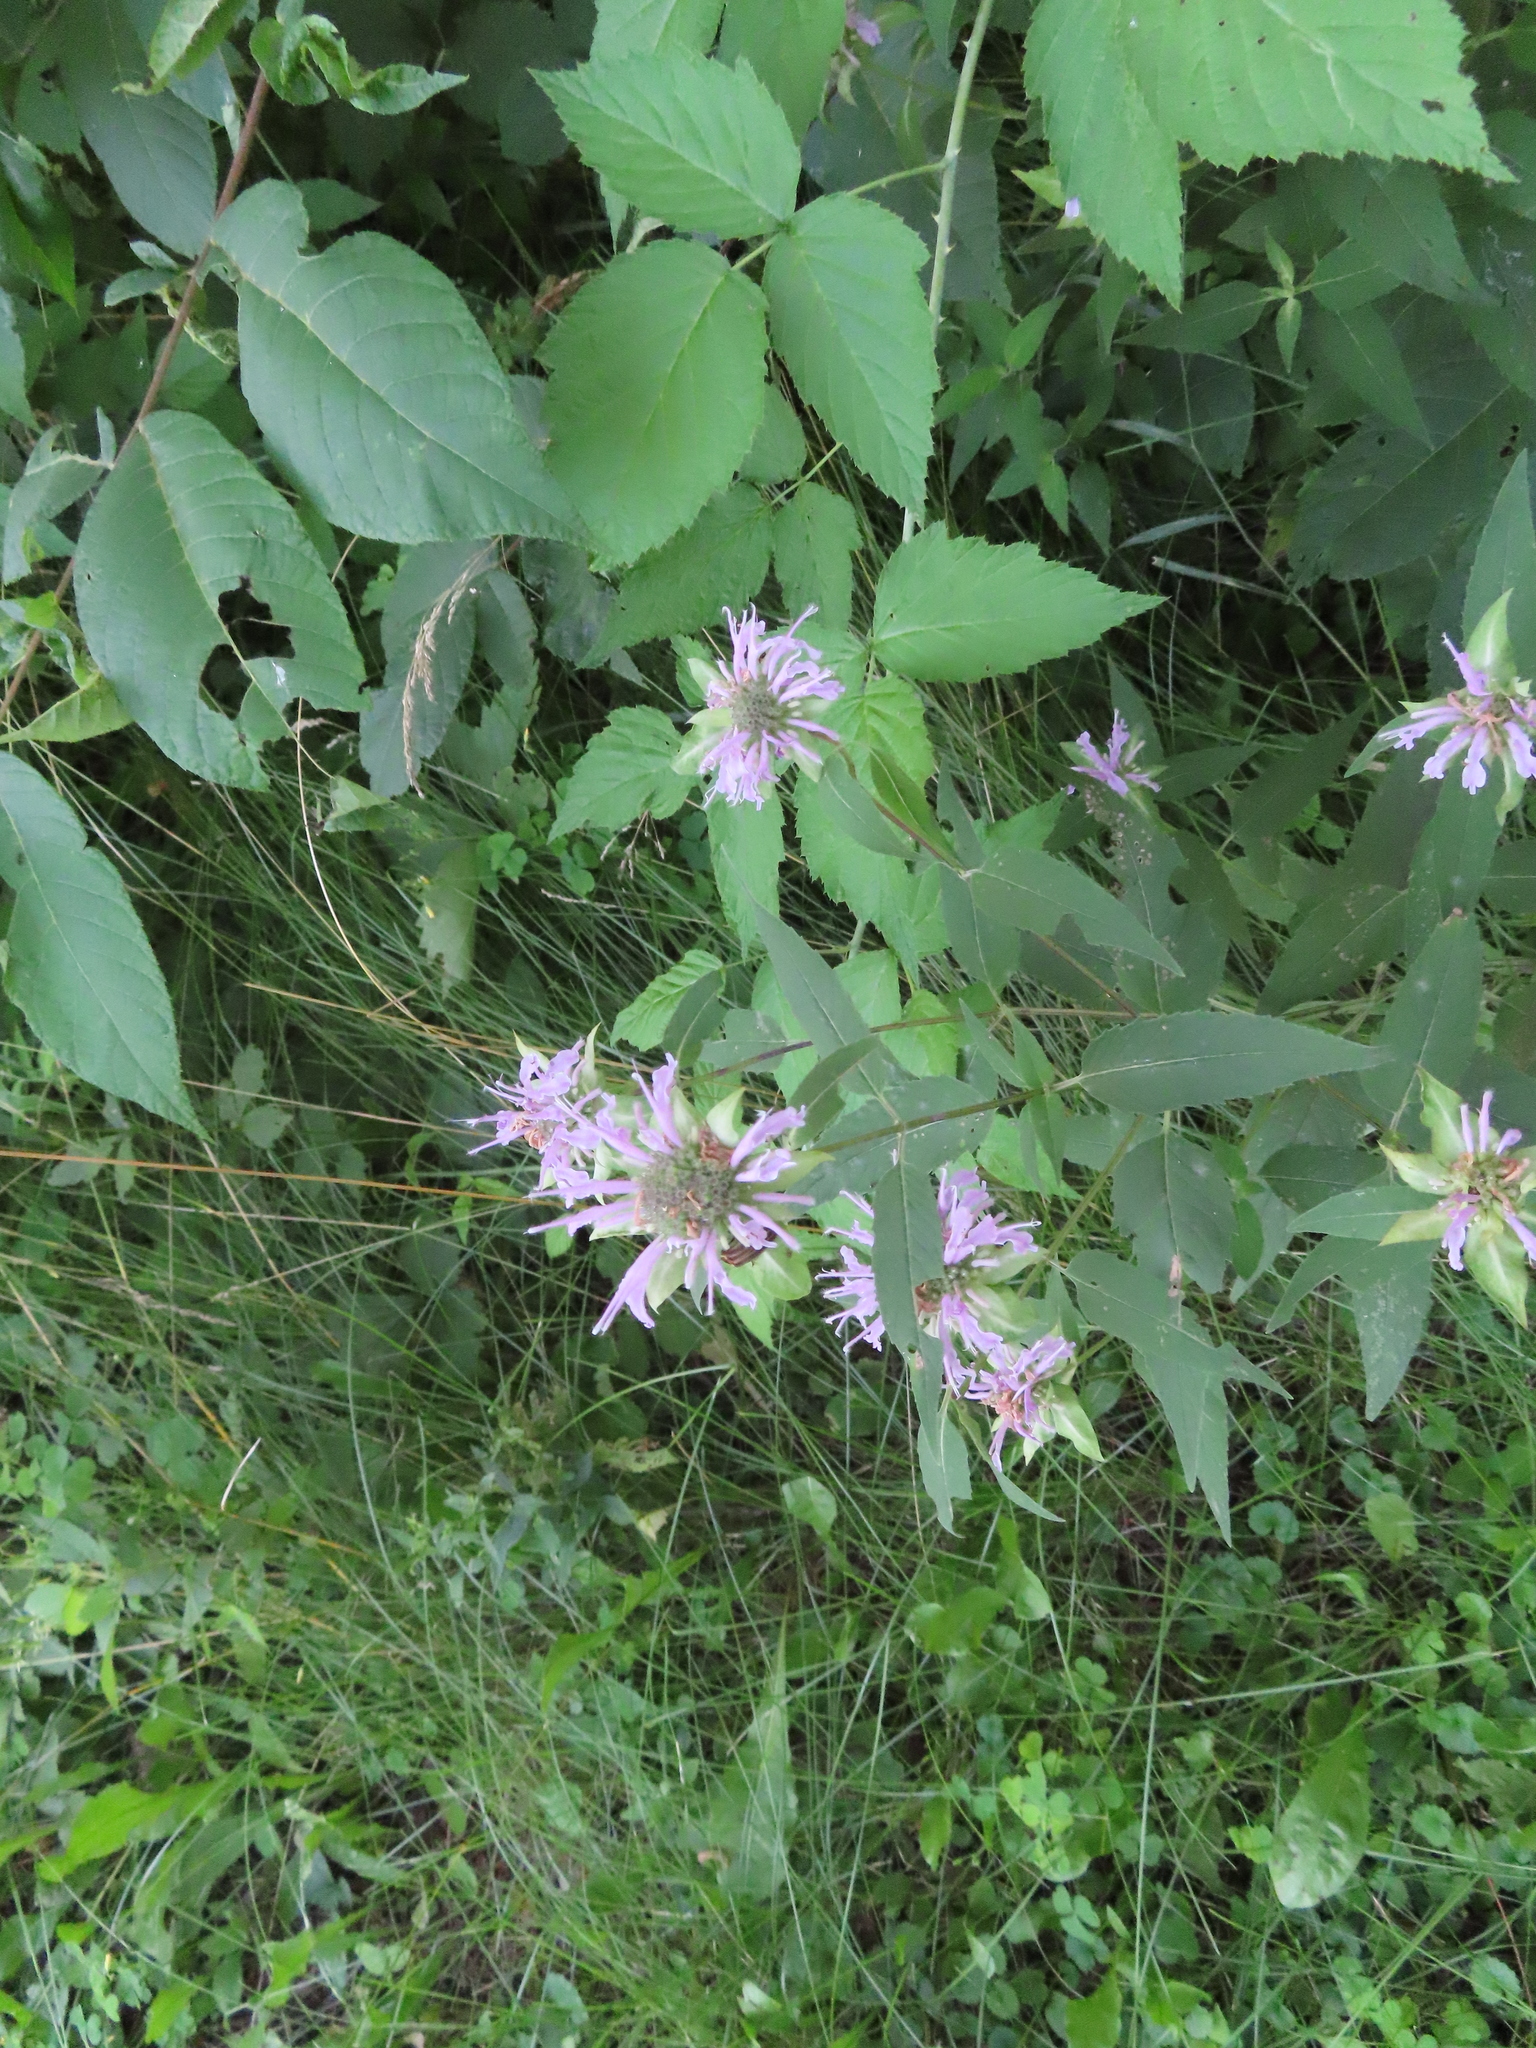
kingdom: Plantae
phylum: Tracheophyta
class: Magnoliopsida
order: Lamiales
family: Lamiaceae
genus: Monarda
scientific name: Monarda fistulosa
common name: Purple beebalm
